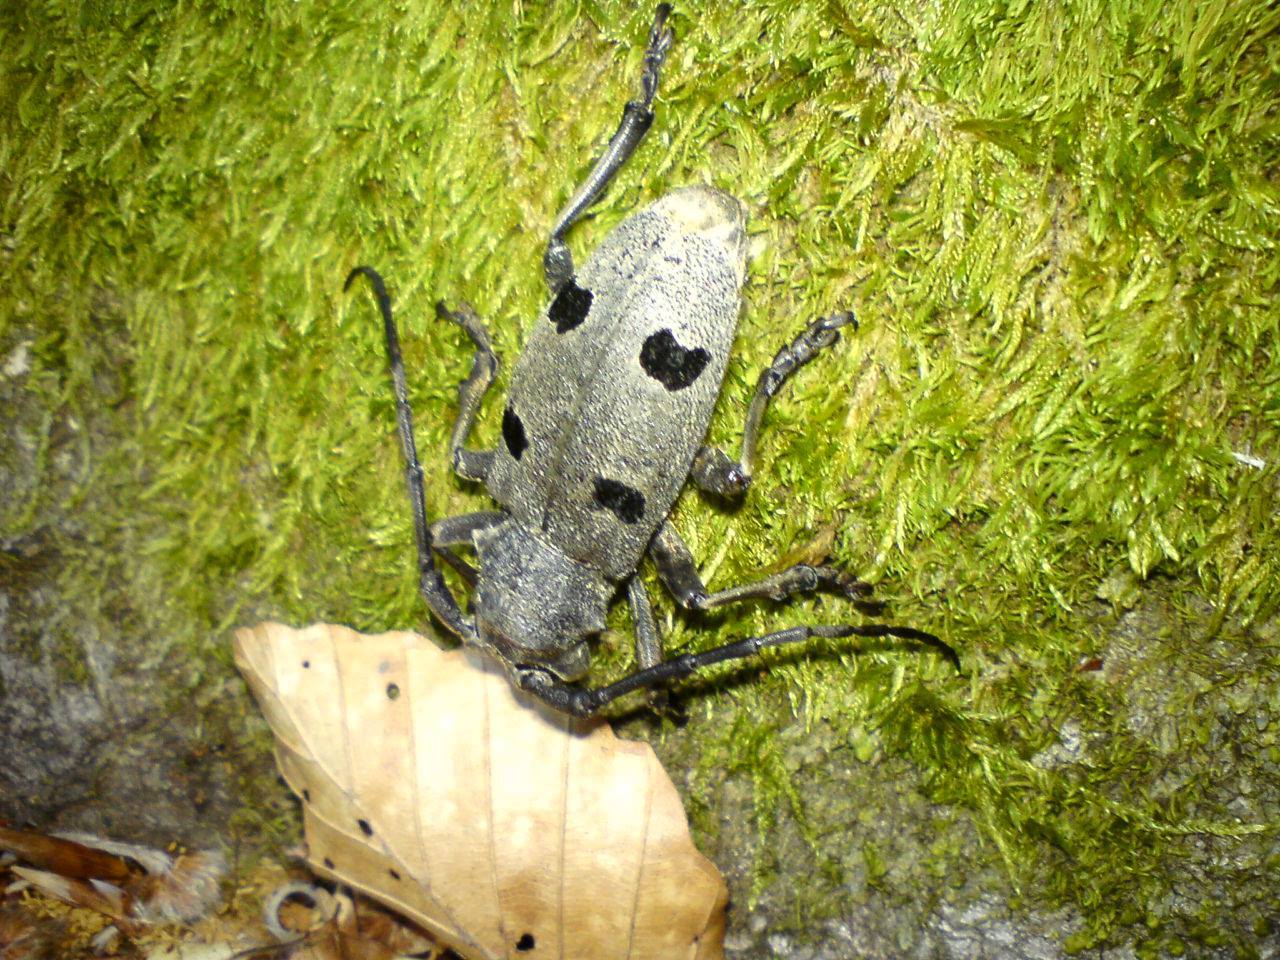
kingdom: Animalia
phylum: Arthropoda
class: Insecta
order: Coleoptera
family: Cerambycidae
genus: Morimus
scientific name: Morimus funereus
